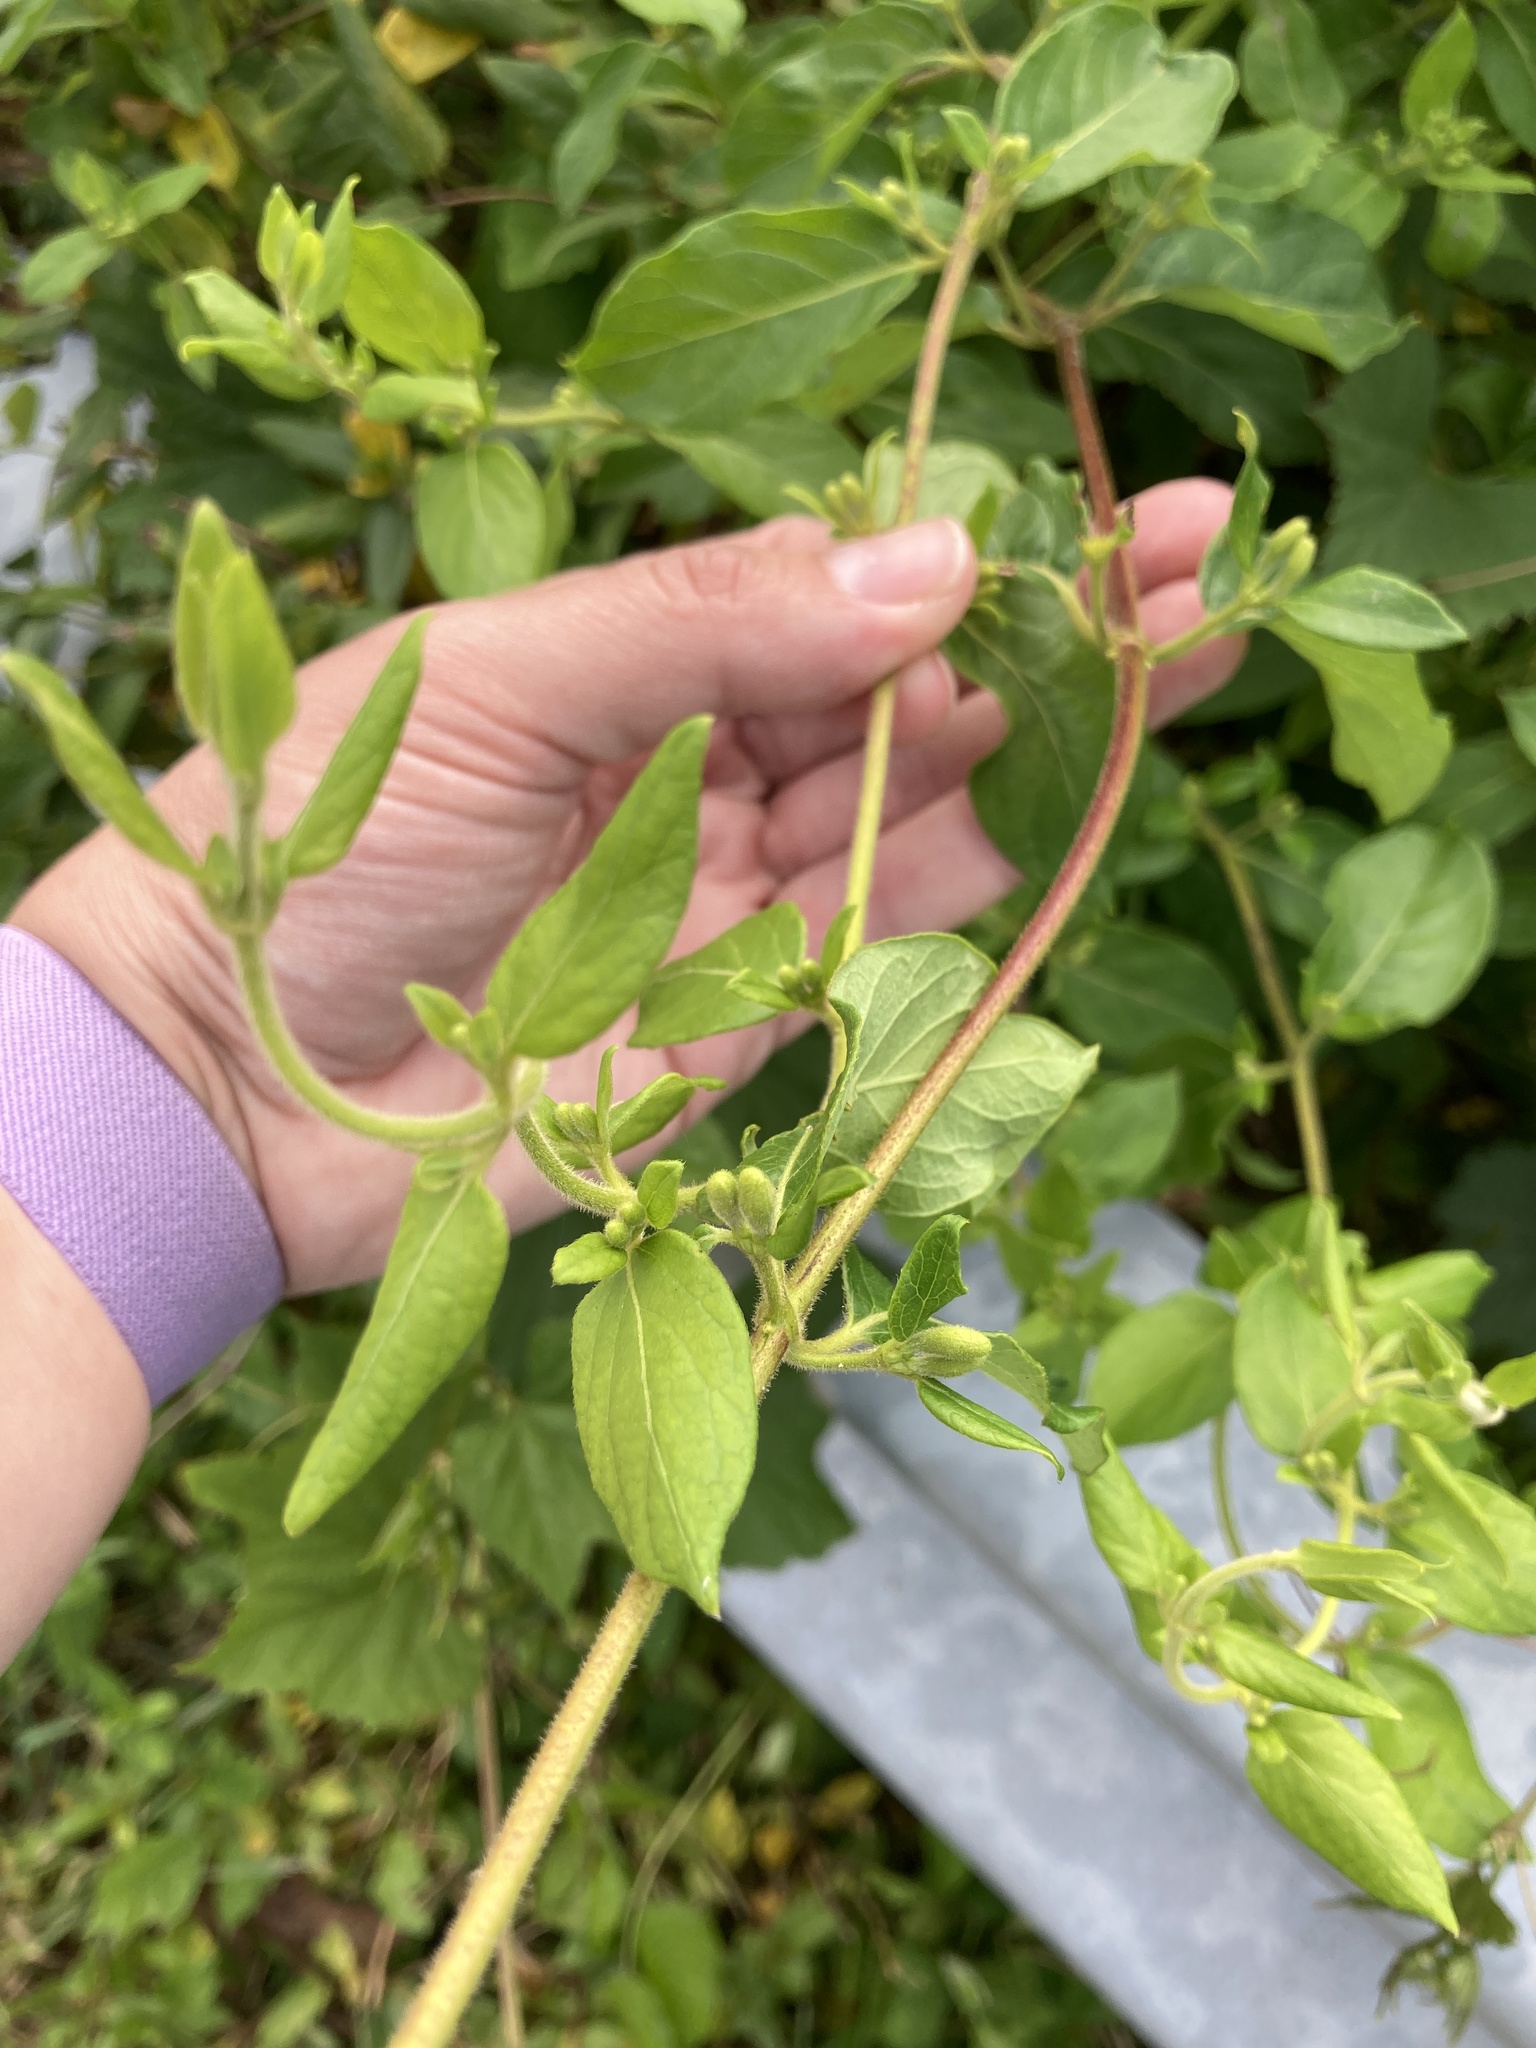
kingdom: Plantae
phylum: Tracheophyta
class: Magnoliopsida
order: Dipsacales
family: Caprifoliaceae
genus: Lonicera
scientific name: Lonicera japonica
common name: Japanese honeysuckle
